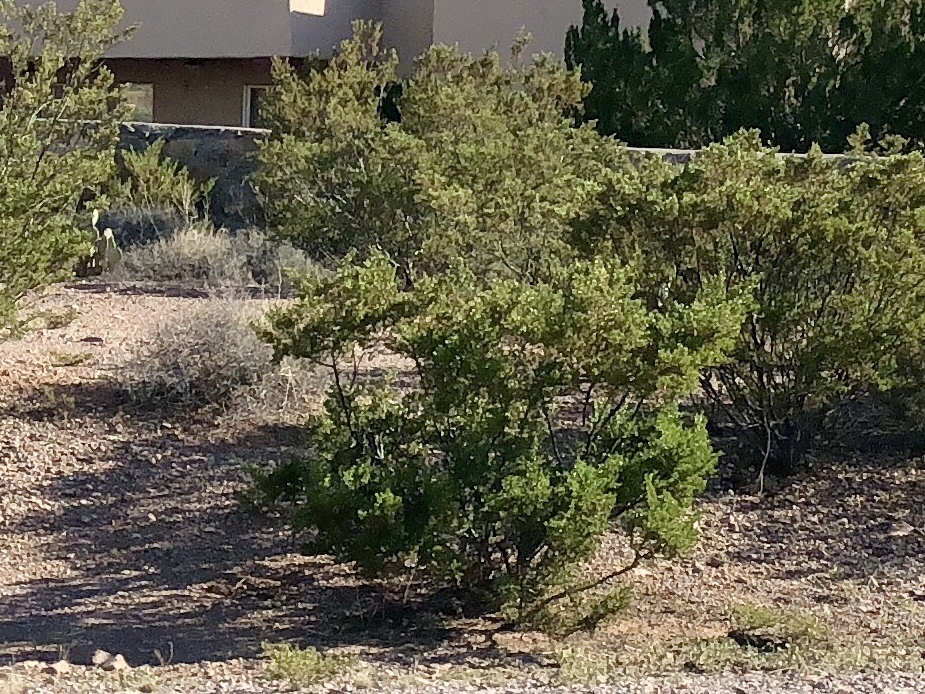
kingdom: Plantae
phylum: Tracheophyta
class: Magnoliopsida
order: Zygophyllales
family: Zygophyllaceae
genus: Larrea
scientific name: Larrea tridentata
